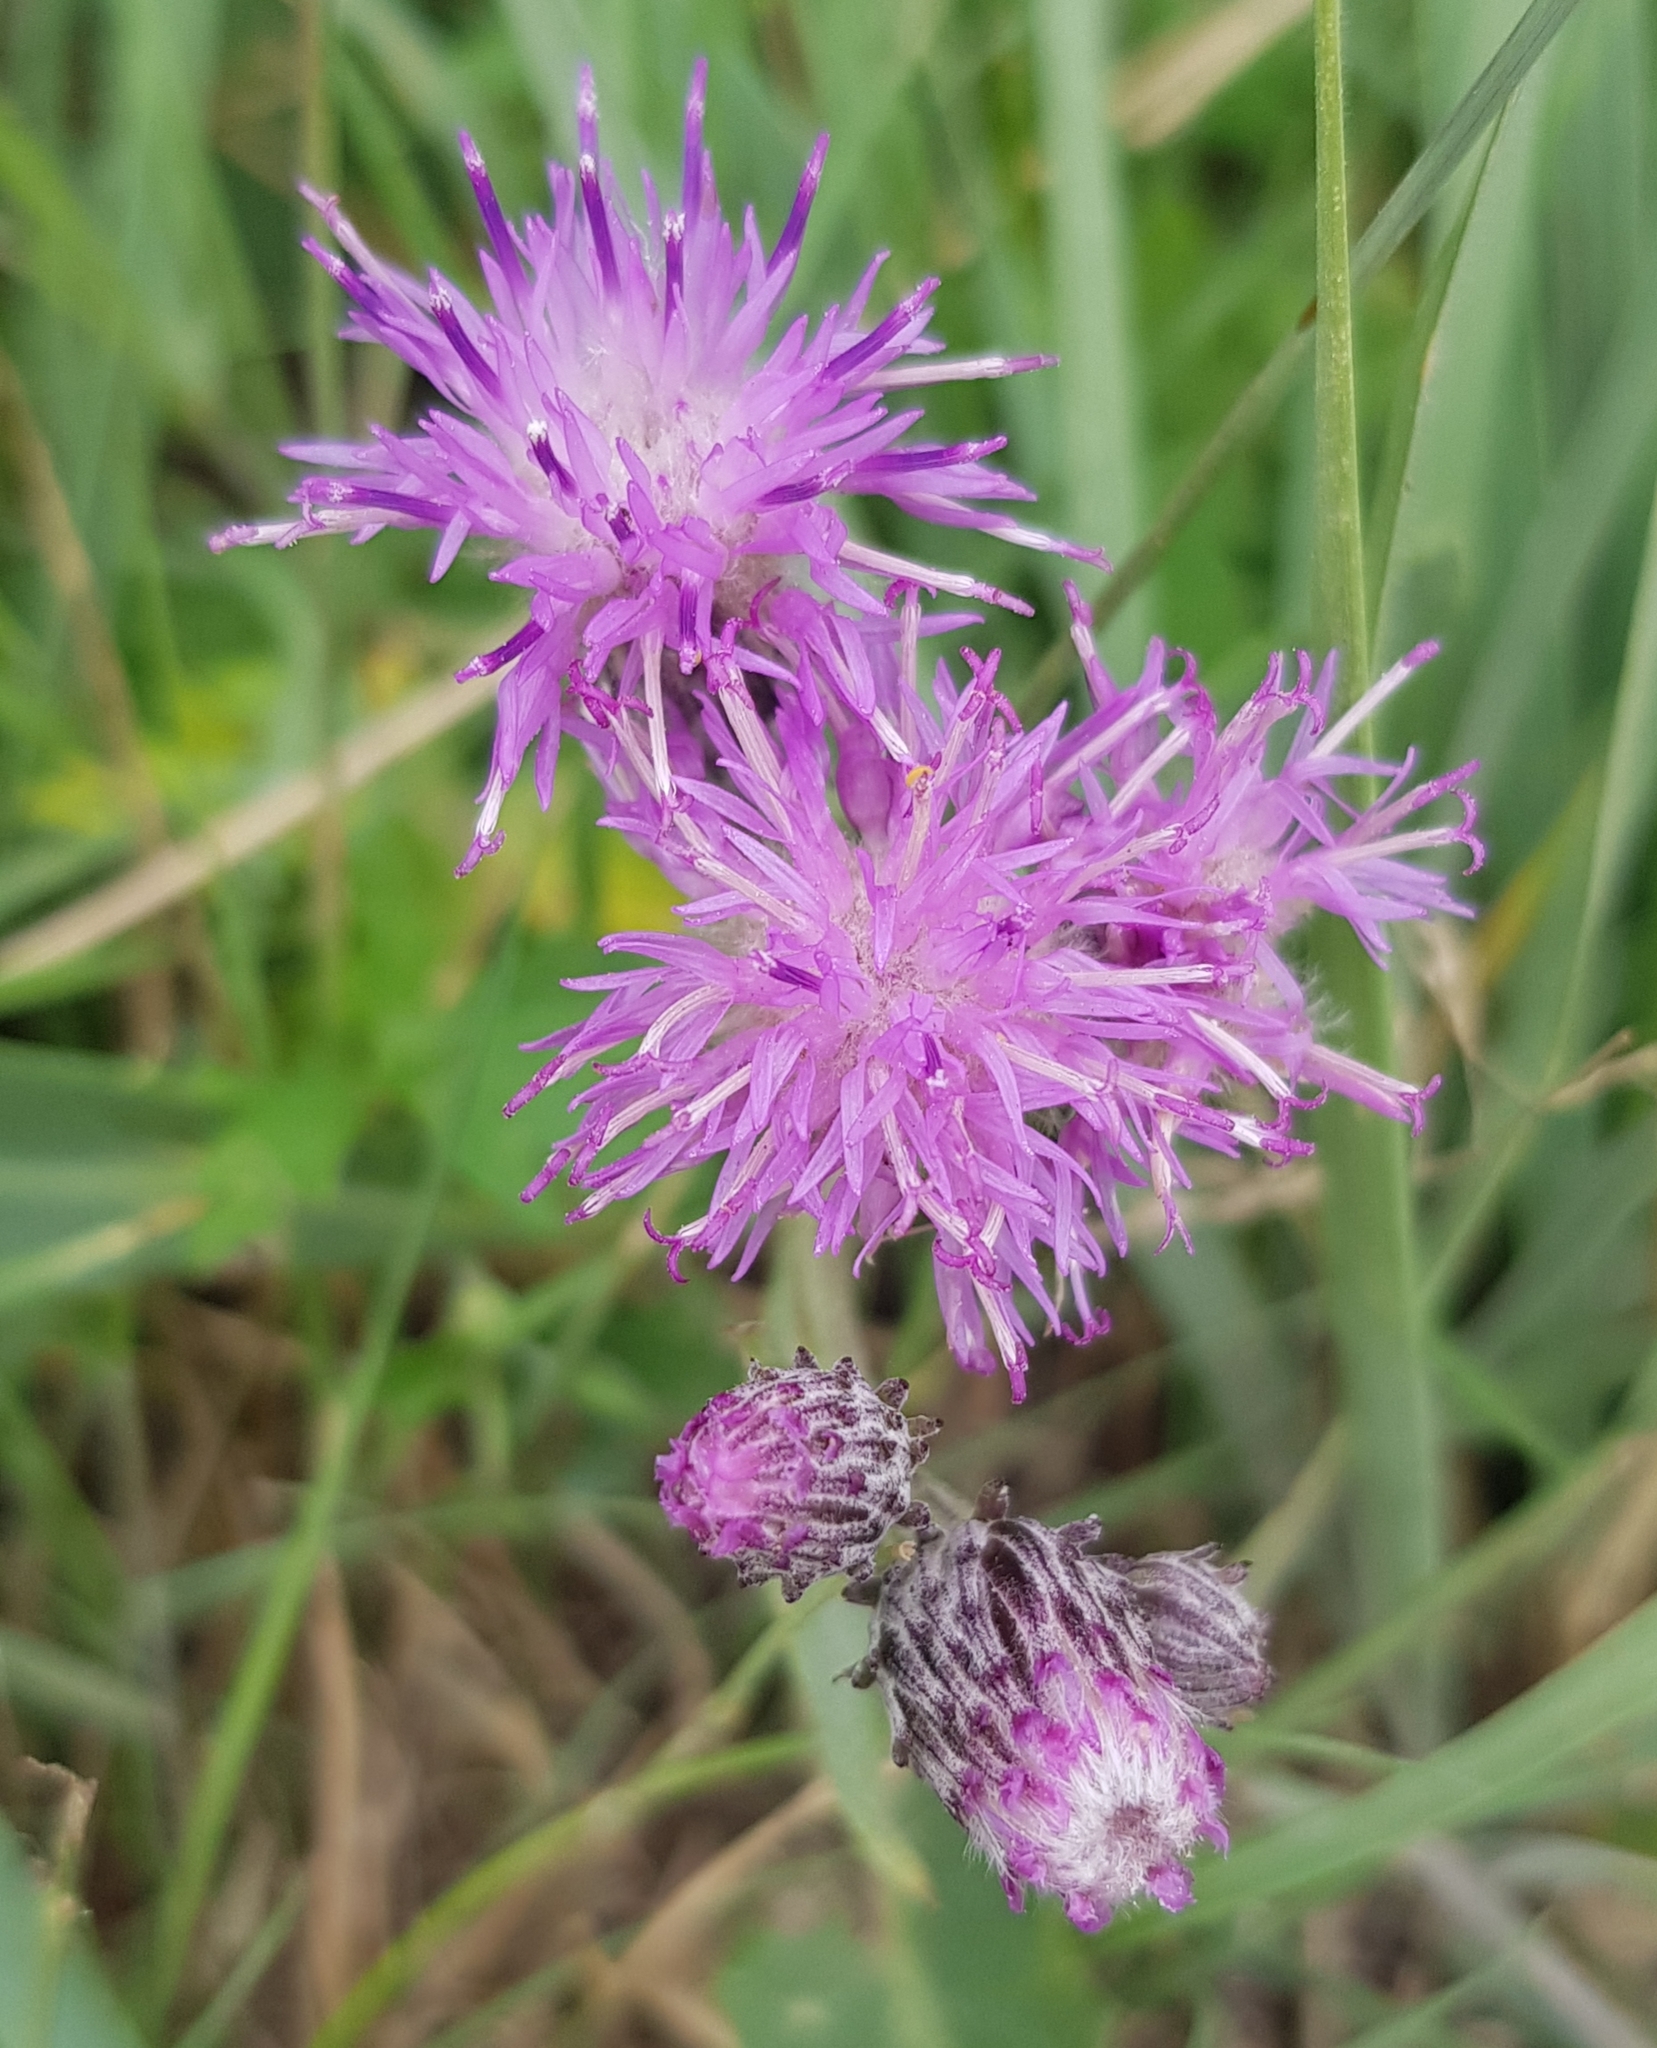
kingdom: Plantae
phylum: Tracheophyta
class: Magnoliopsida
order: Asterales
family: Asteraceae
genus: Saussurea
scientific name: Saussurea amara
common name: Alberta sawwort
